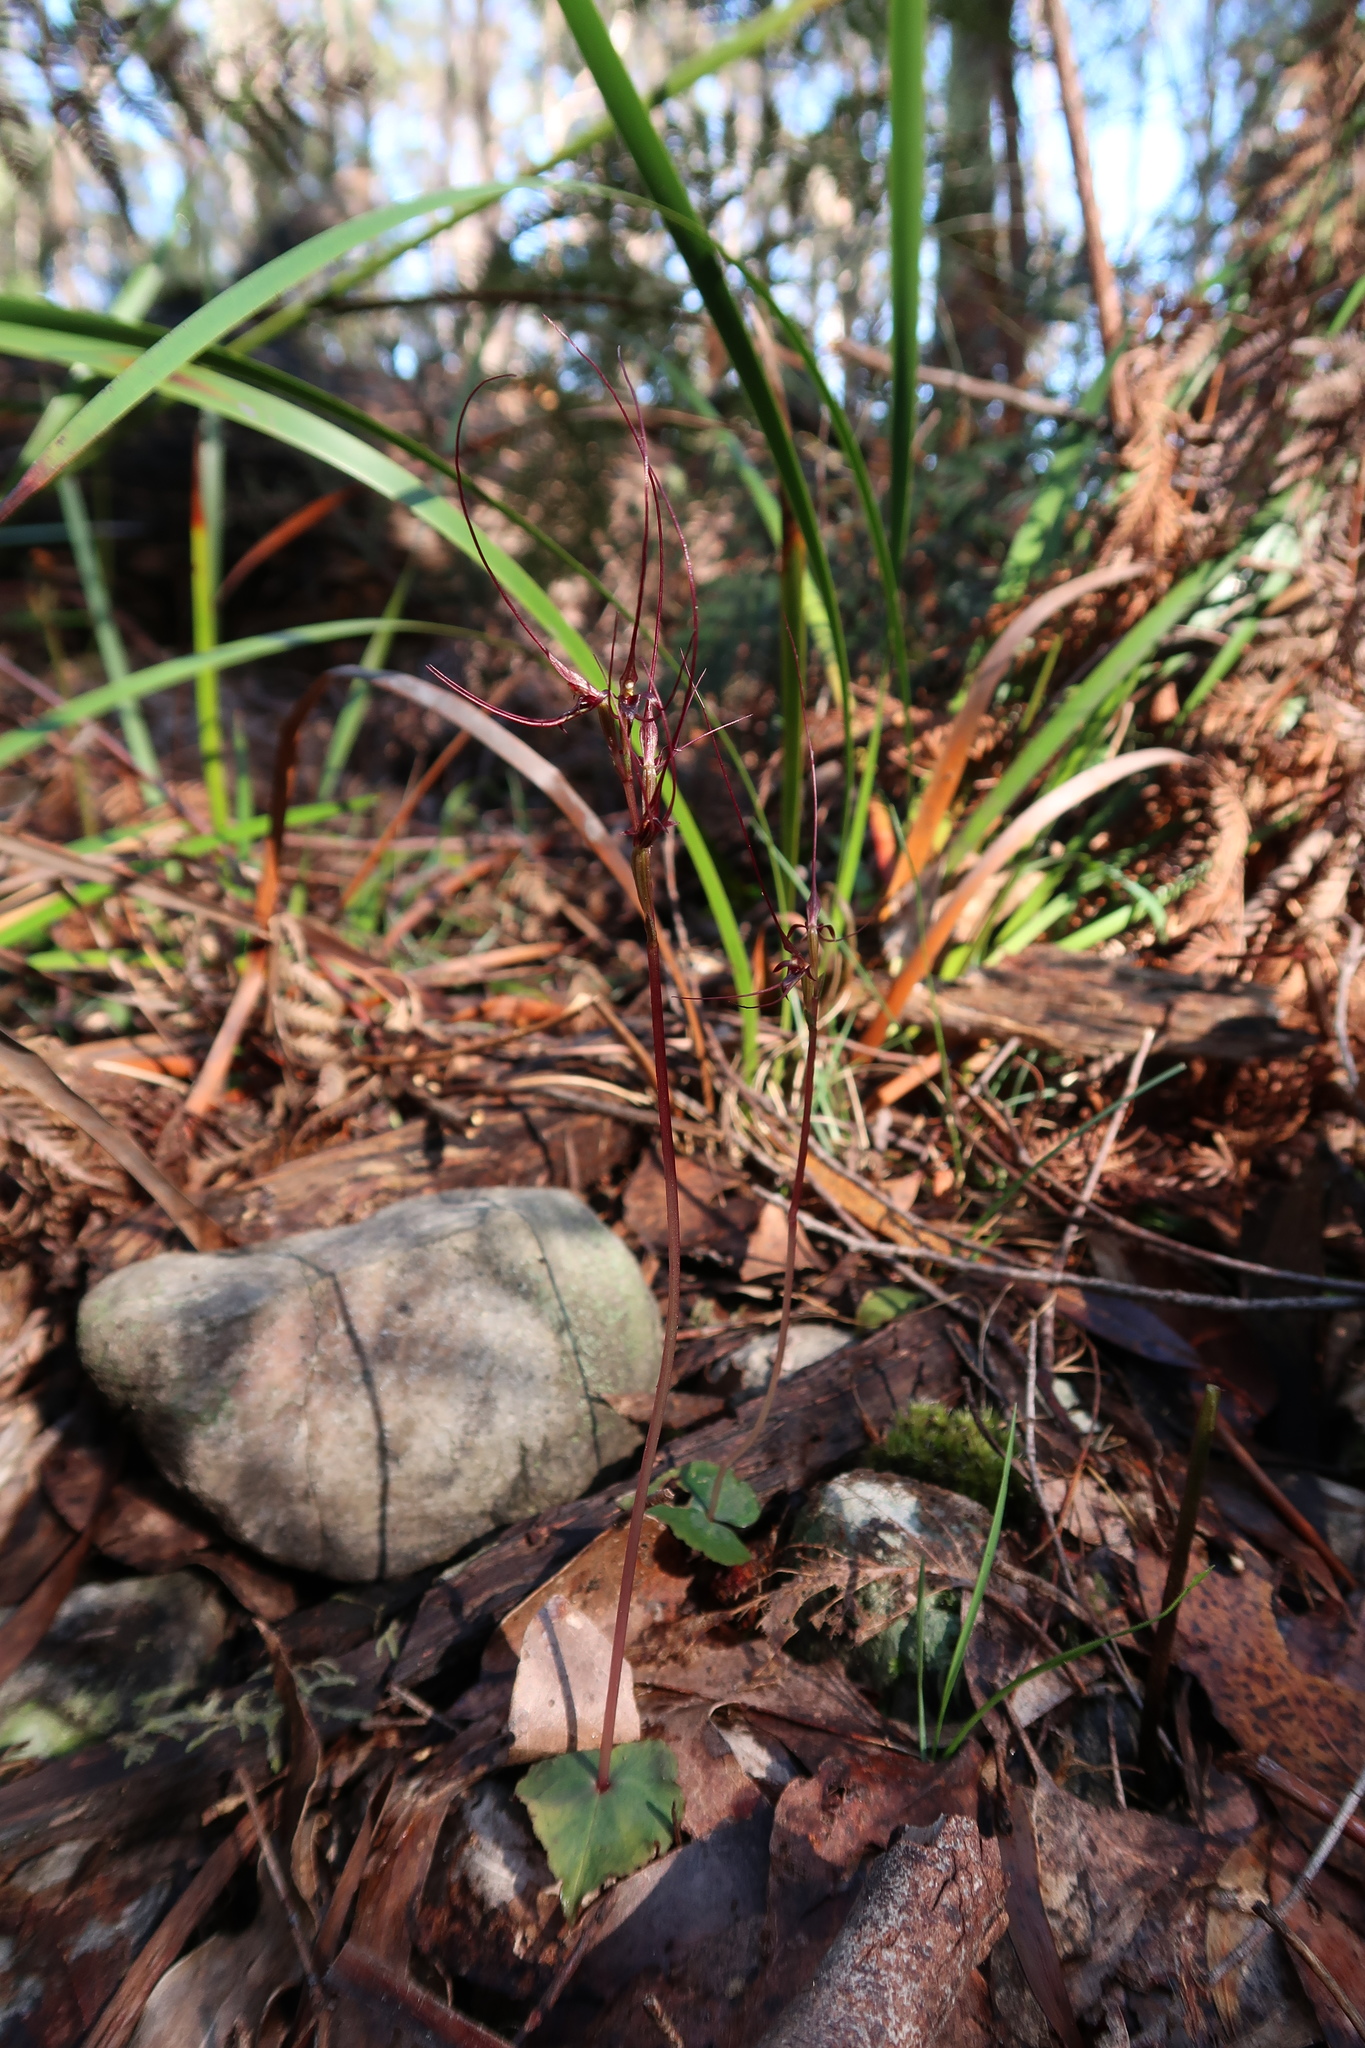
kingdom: Plantae
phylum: Tracheophyta
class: Liliopsida
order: Asparagales
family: Orchidaceae
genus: Acianthus
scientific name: Acianthus caudatus
